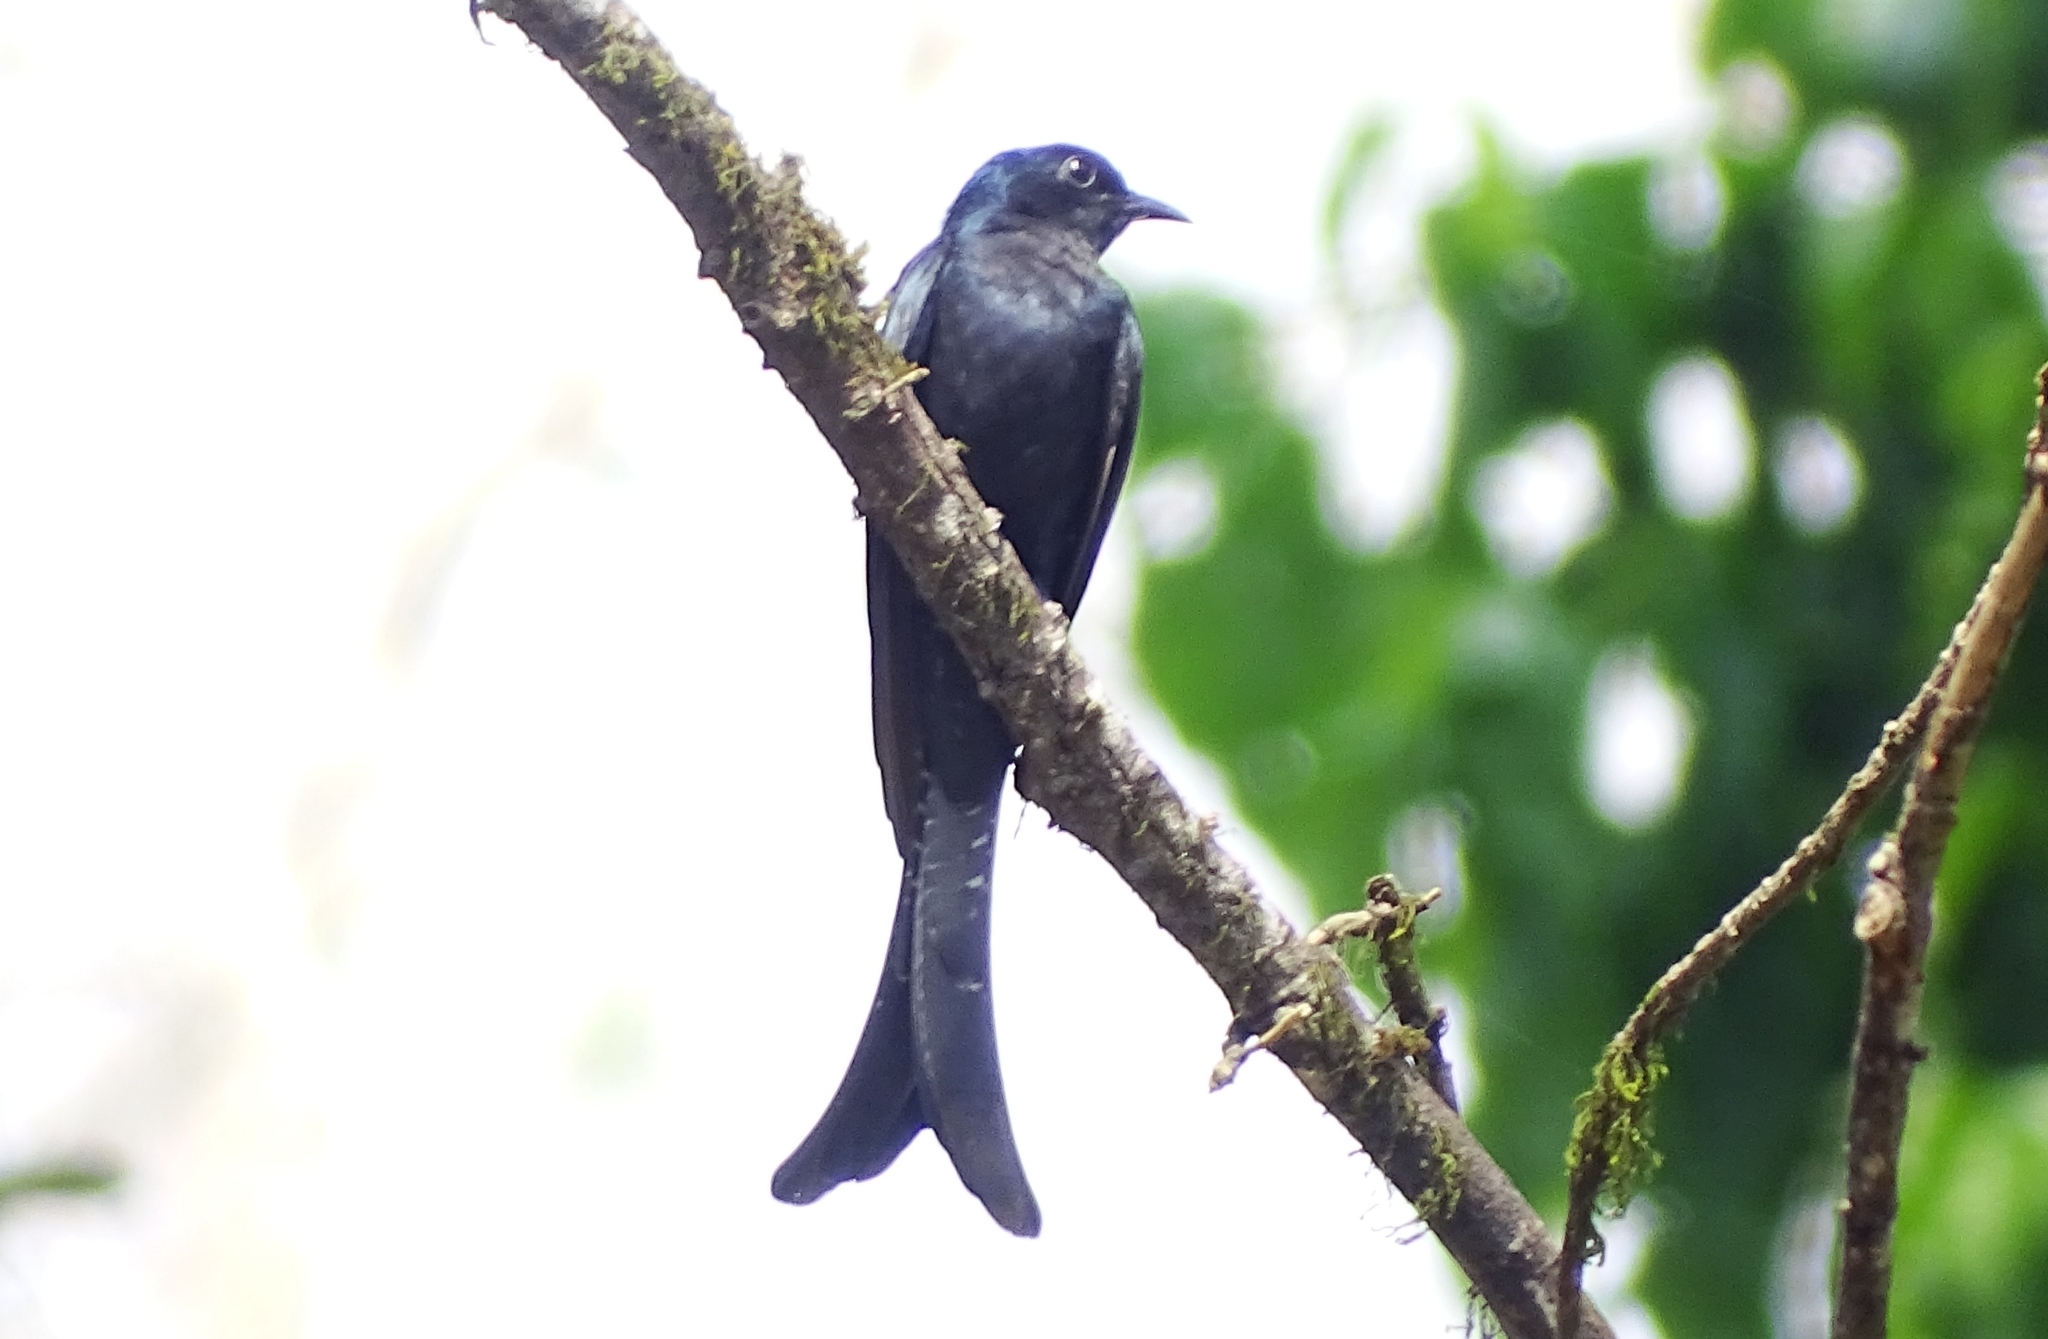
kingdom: Animalia
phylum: Chordata
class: Aves
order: Cuculiformes
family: Cuculidae
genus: Surniculus
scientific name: Surniculus lugubris
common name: Square-tailed drongo-cuckoo
